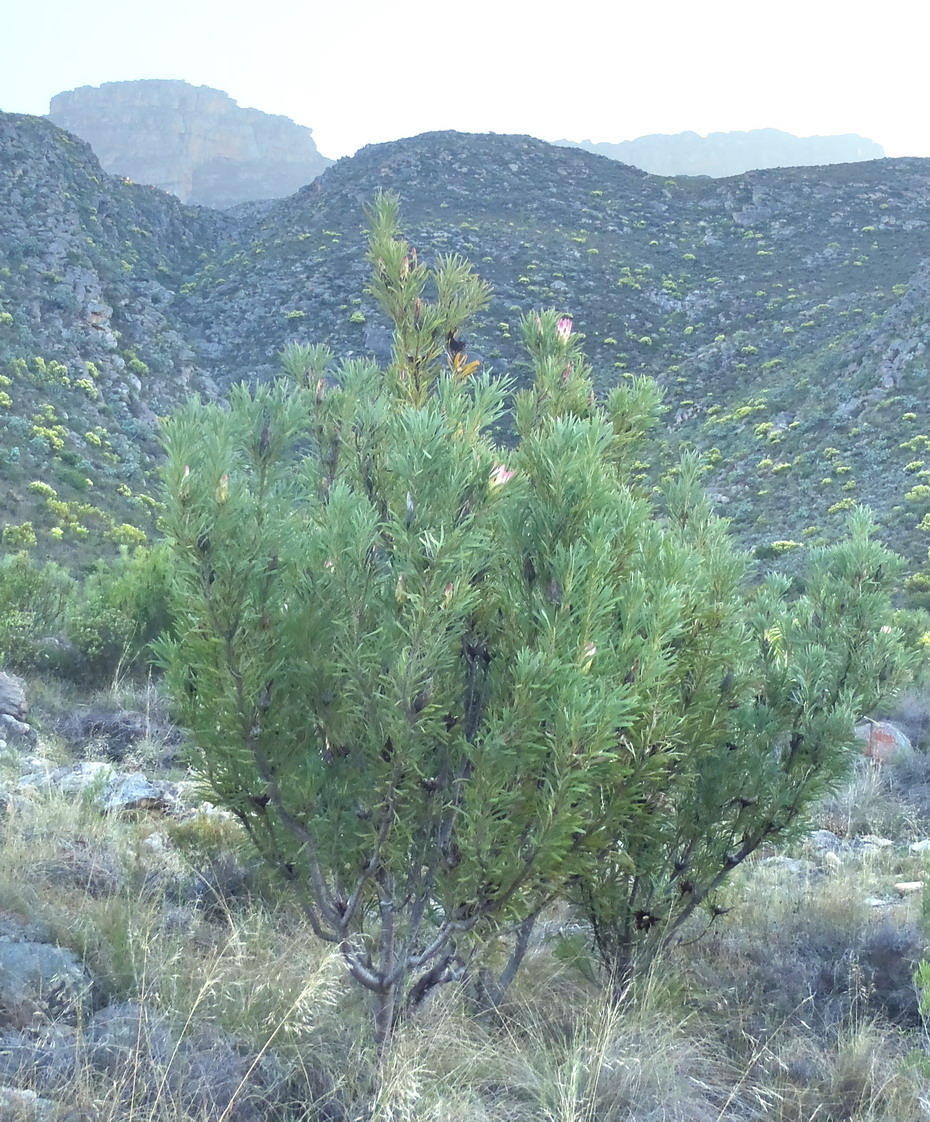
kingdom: Plantae
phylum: Tracheophyta
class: Magnoliopsida
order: Proteales
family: Proteaceae
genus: Protea
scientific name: Protea repens
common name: Sugarbush
